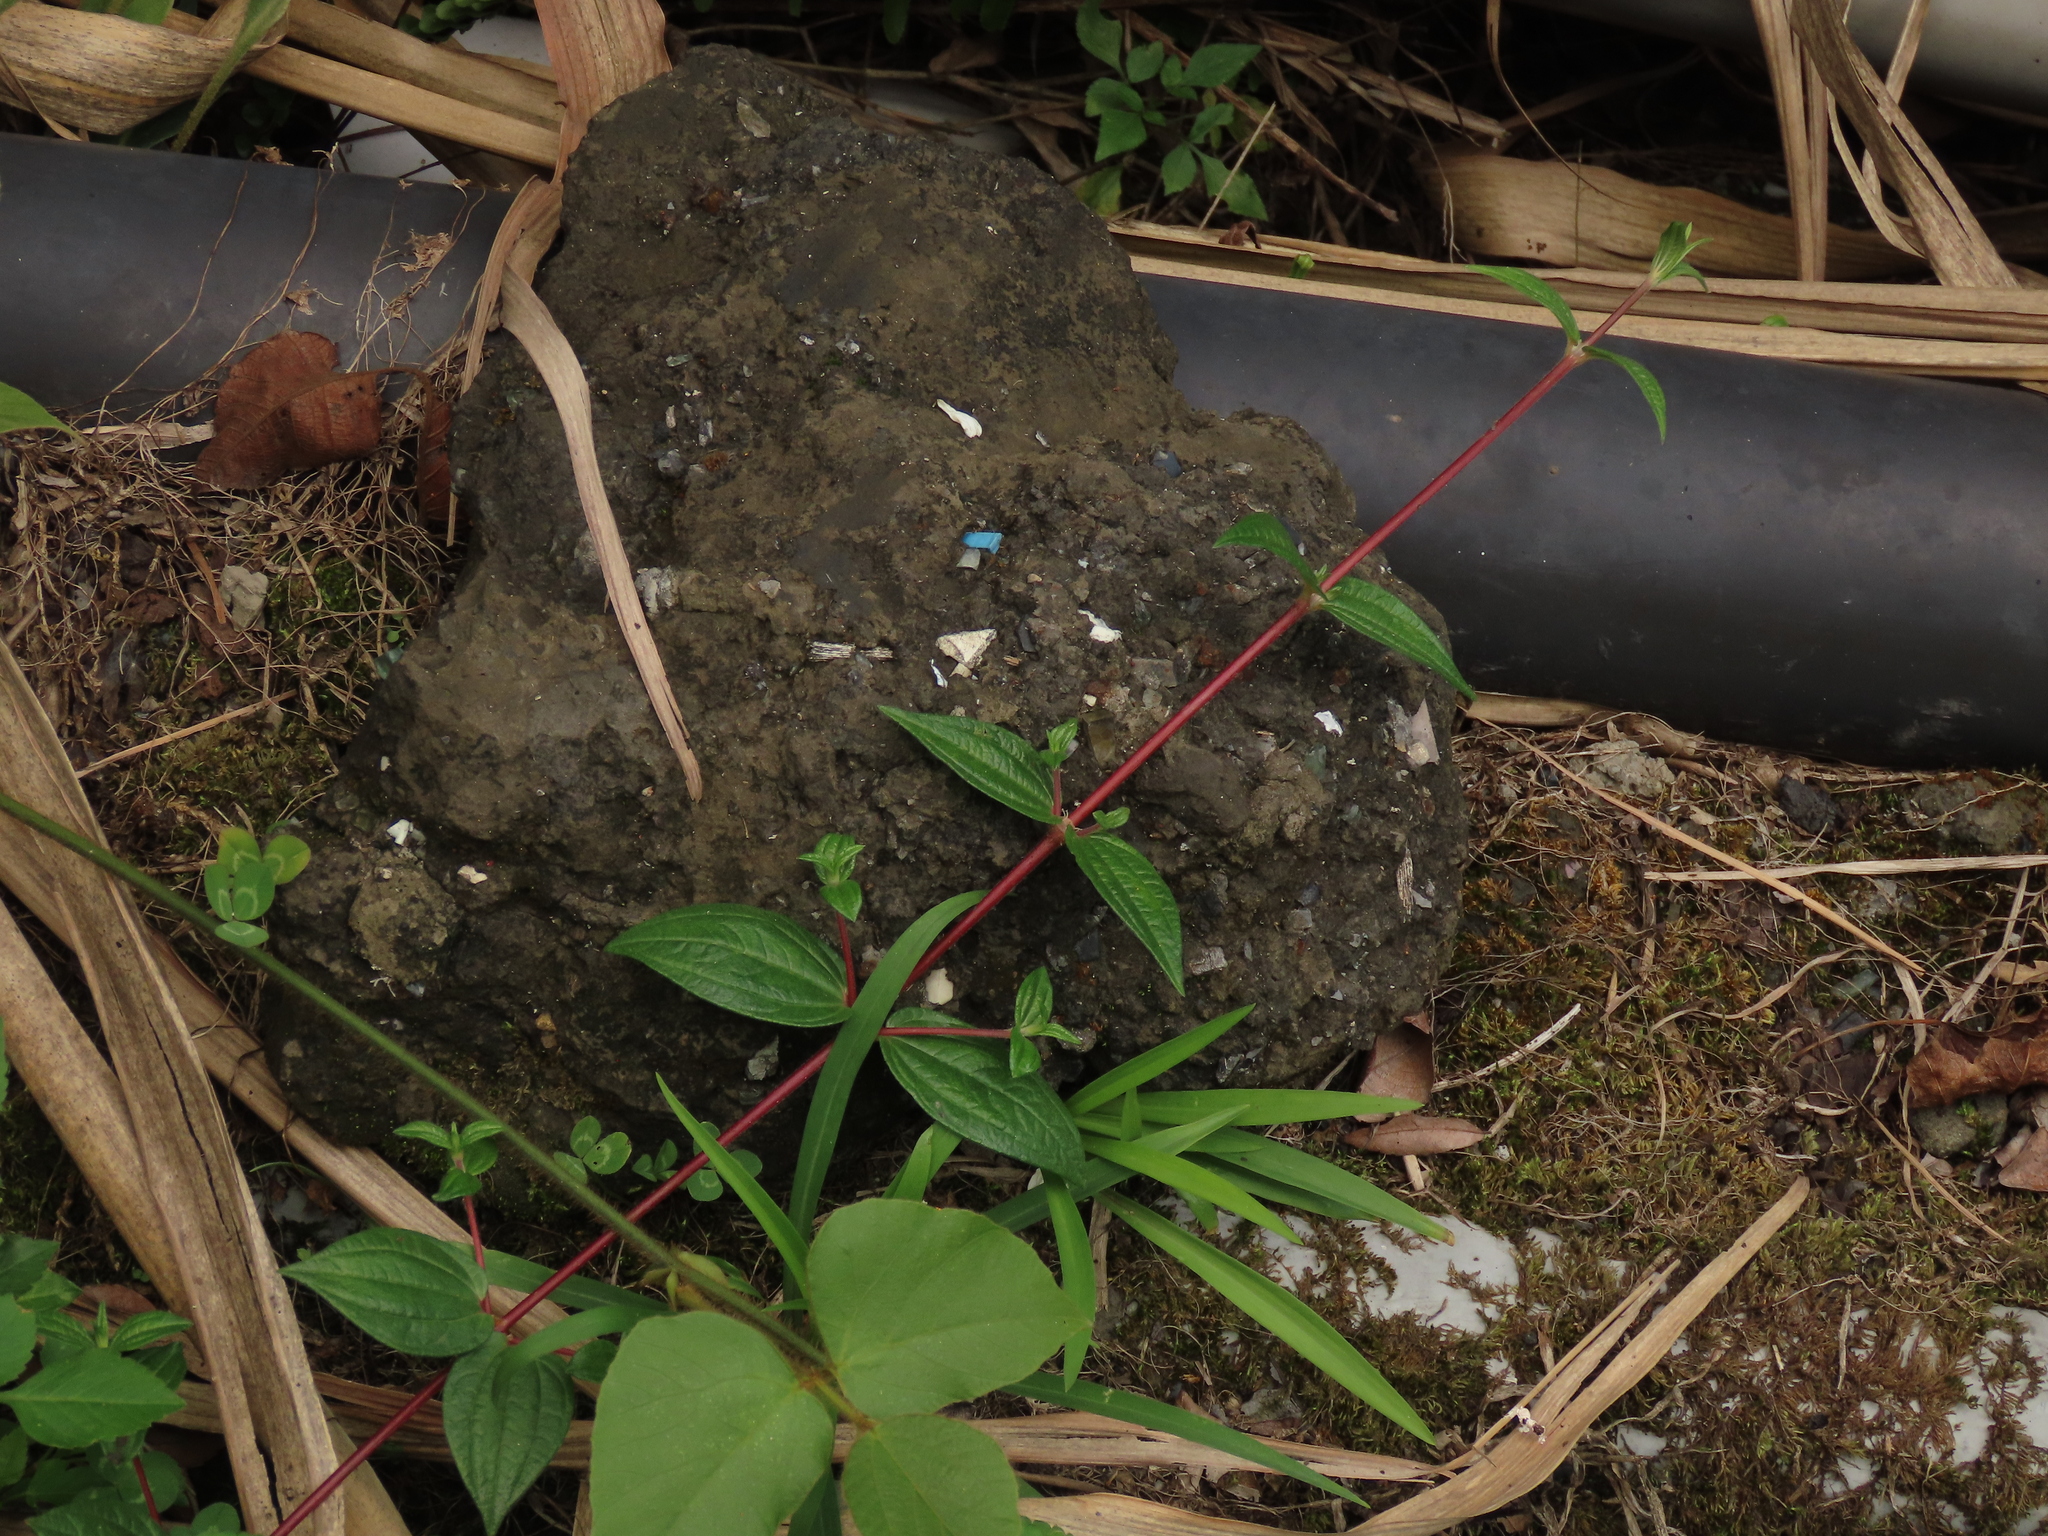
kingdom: Plantae
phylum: Tracheophyta
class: Magnoliopsida
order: Rosales
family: Urticaceae
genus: Gonostegia
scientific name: Gonostegia triandra
